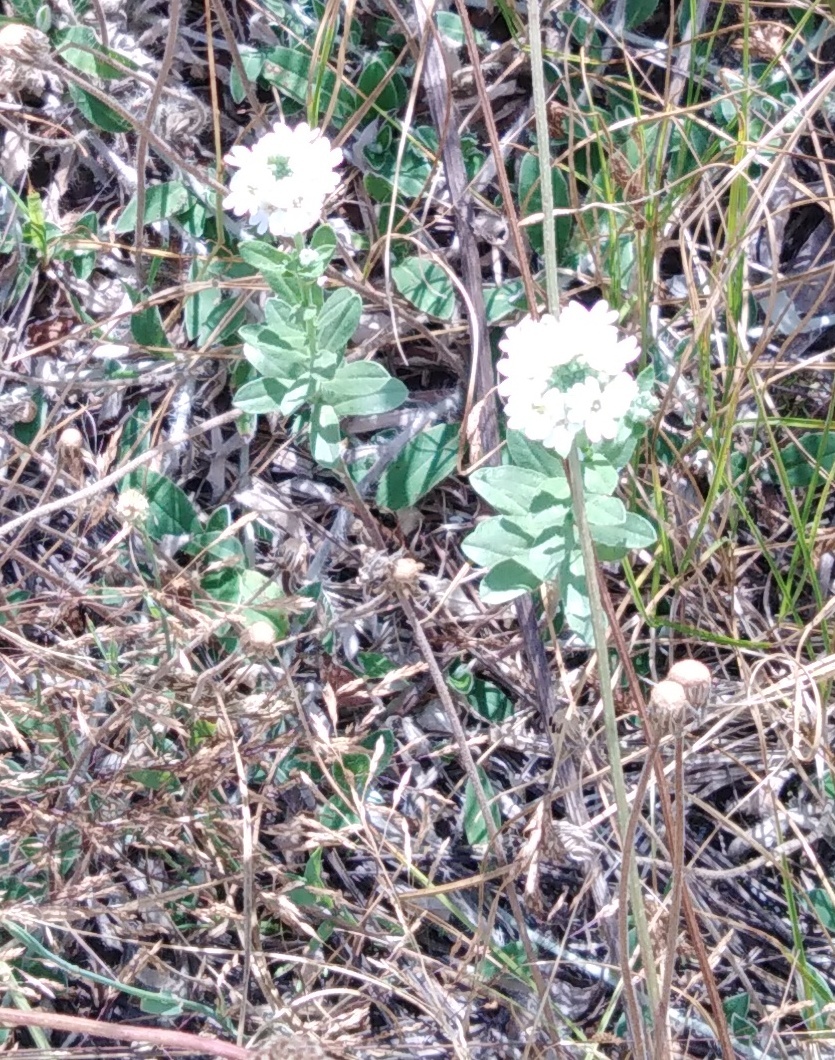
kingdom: Plantae
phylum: Tracheophyta
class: Magnoliopsida
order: Brassicales
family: Brassicaceae
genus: Berteroa
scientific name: Berteroa incana
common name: Hoary alison
